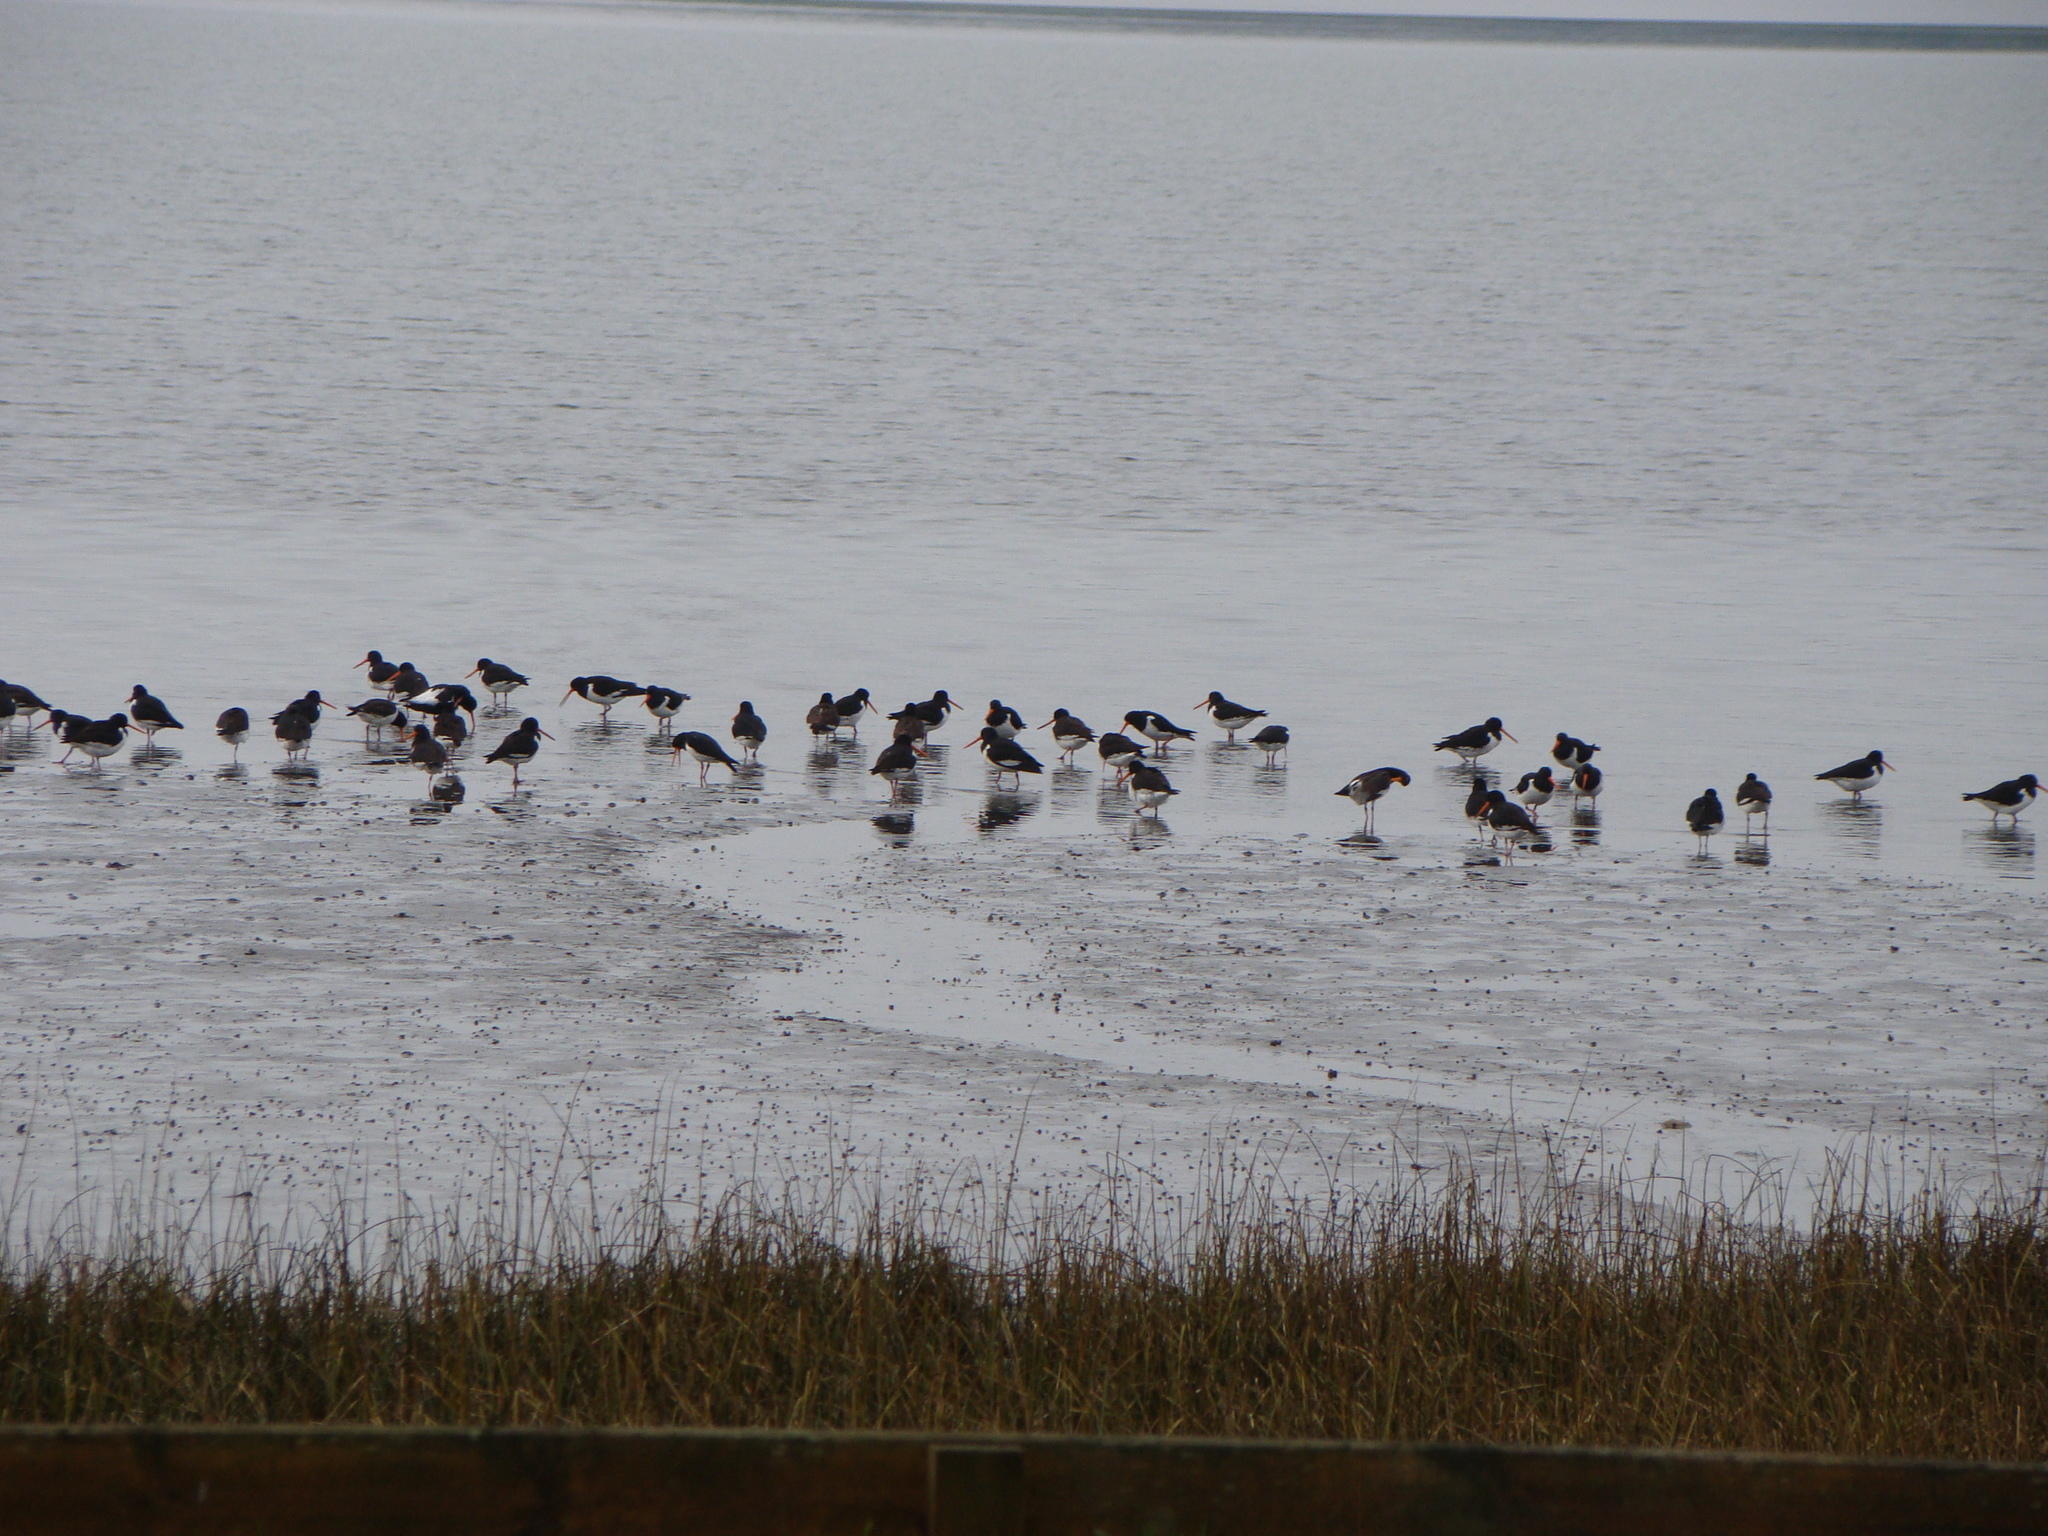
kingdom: Animalia
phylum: Chordata
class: Aves
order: Charadriiformes
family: Haematopodidae
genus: Haematopus
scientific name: Haematopus finschi
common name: South island oystercatcher
